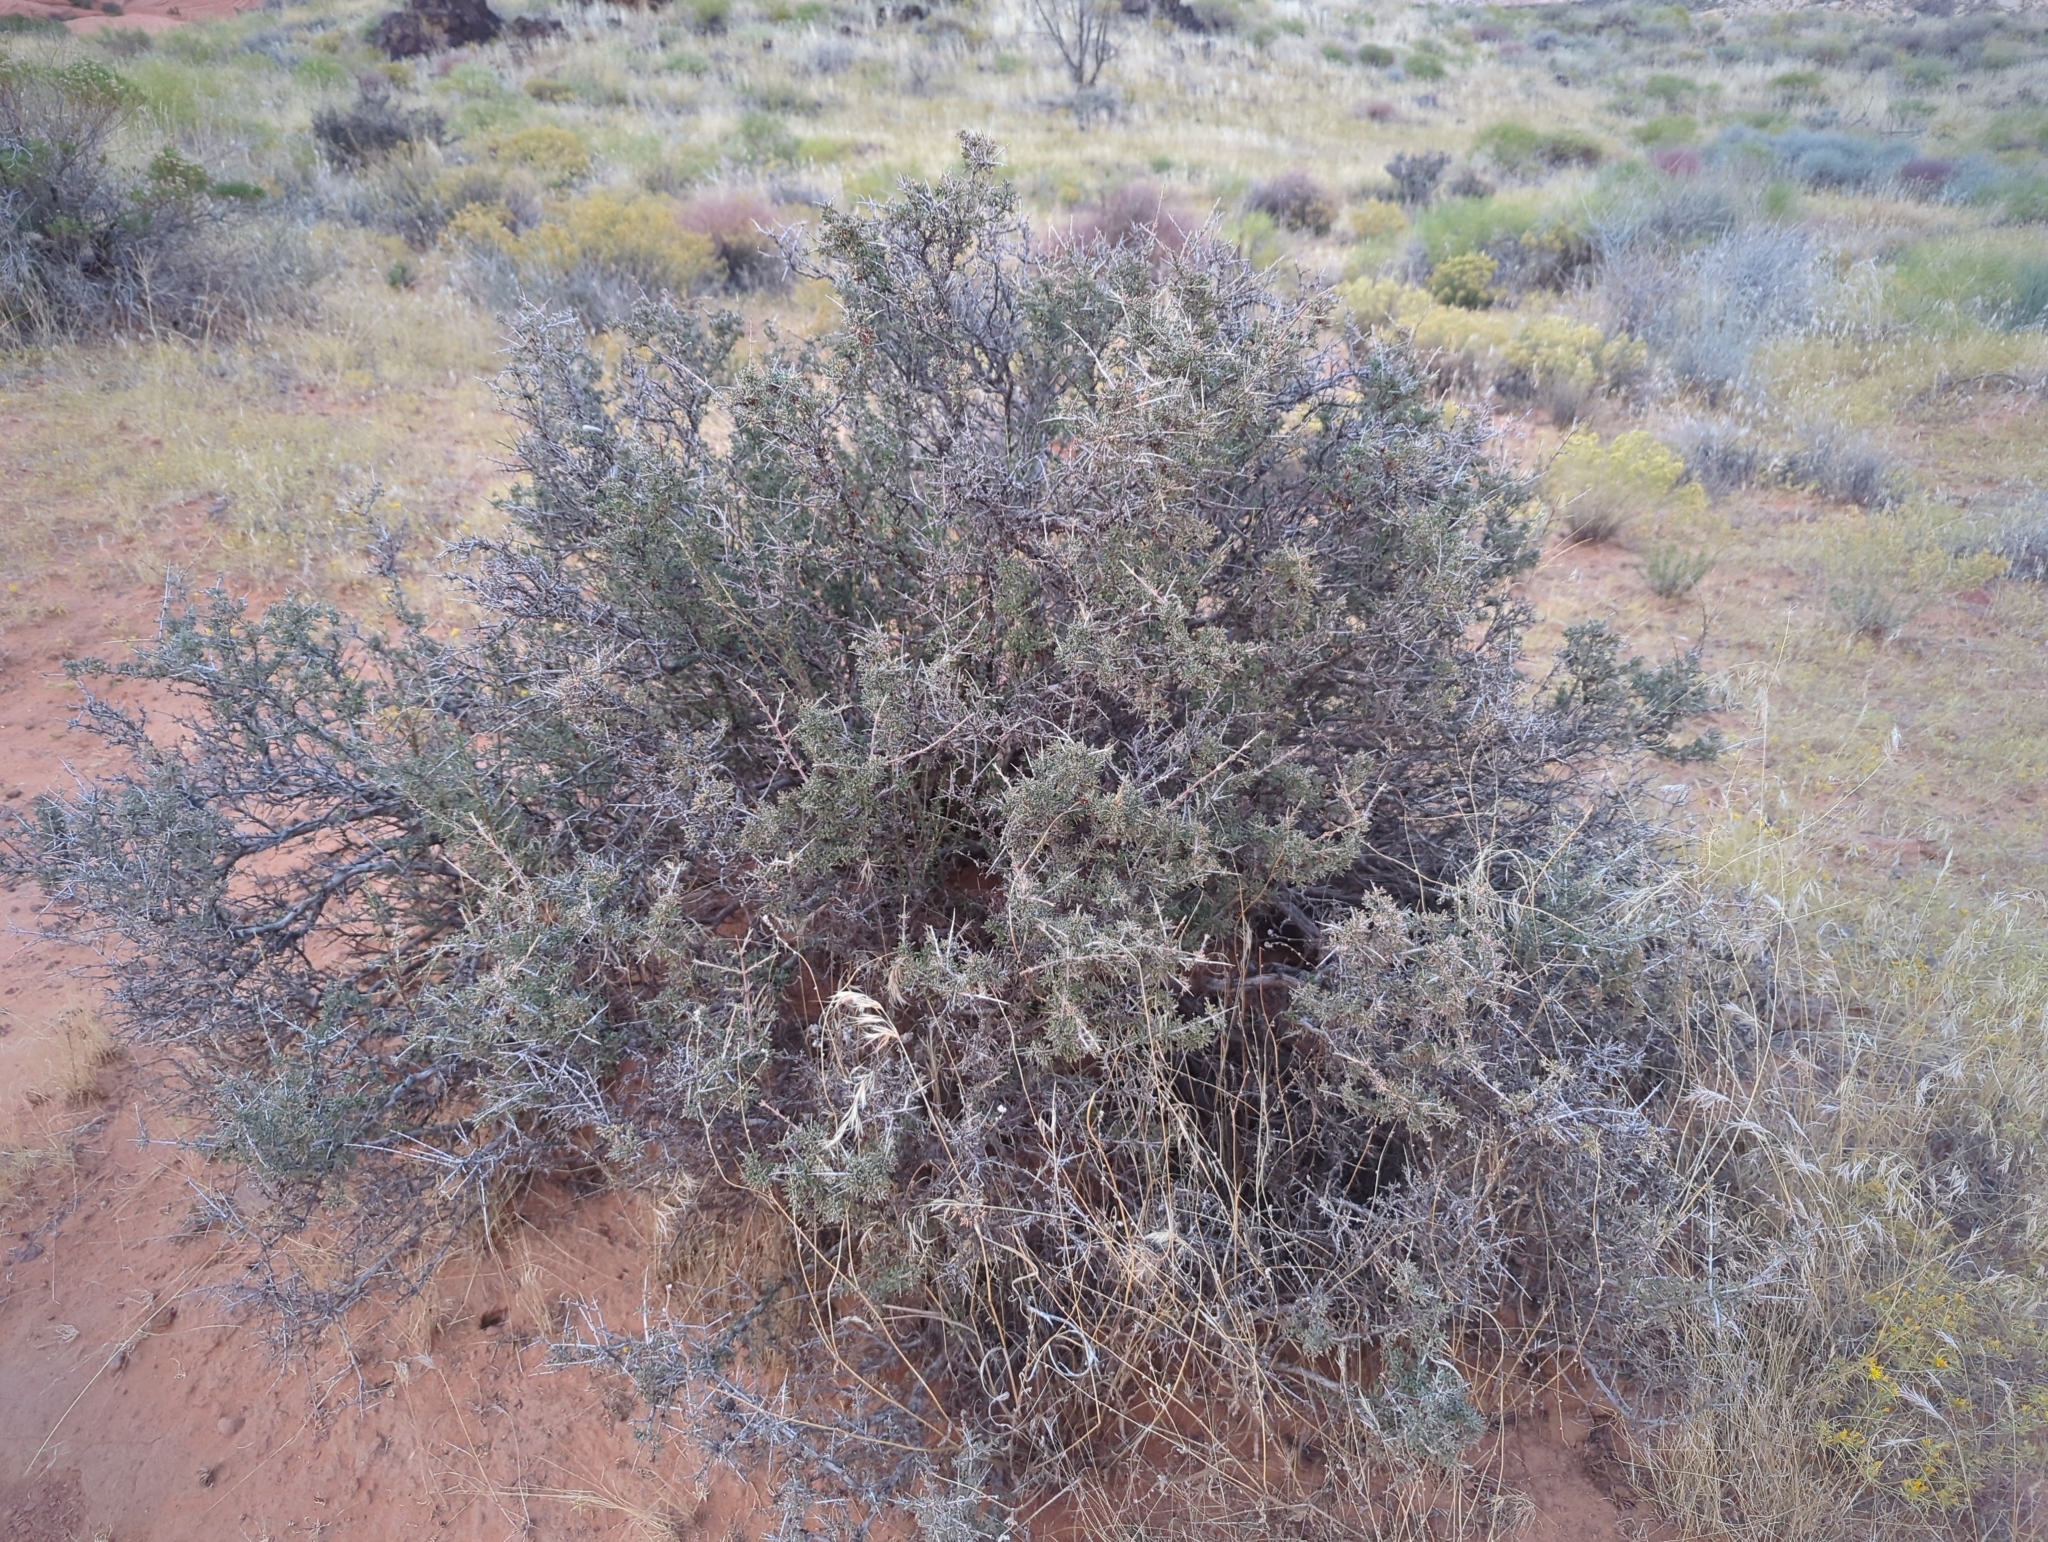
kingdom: Plantae
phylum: Tracheophyta
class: Magnoliopsida
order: Rosales
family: Rosaceae
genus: Coleogyne
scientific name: Coleogyne ramosissima
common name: Blackbrush
